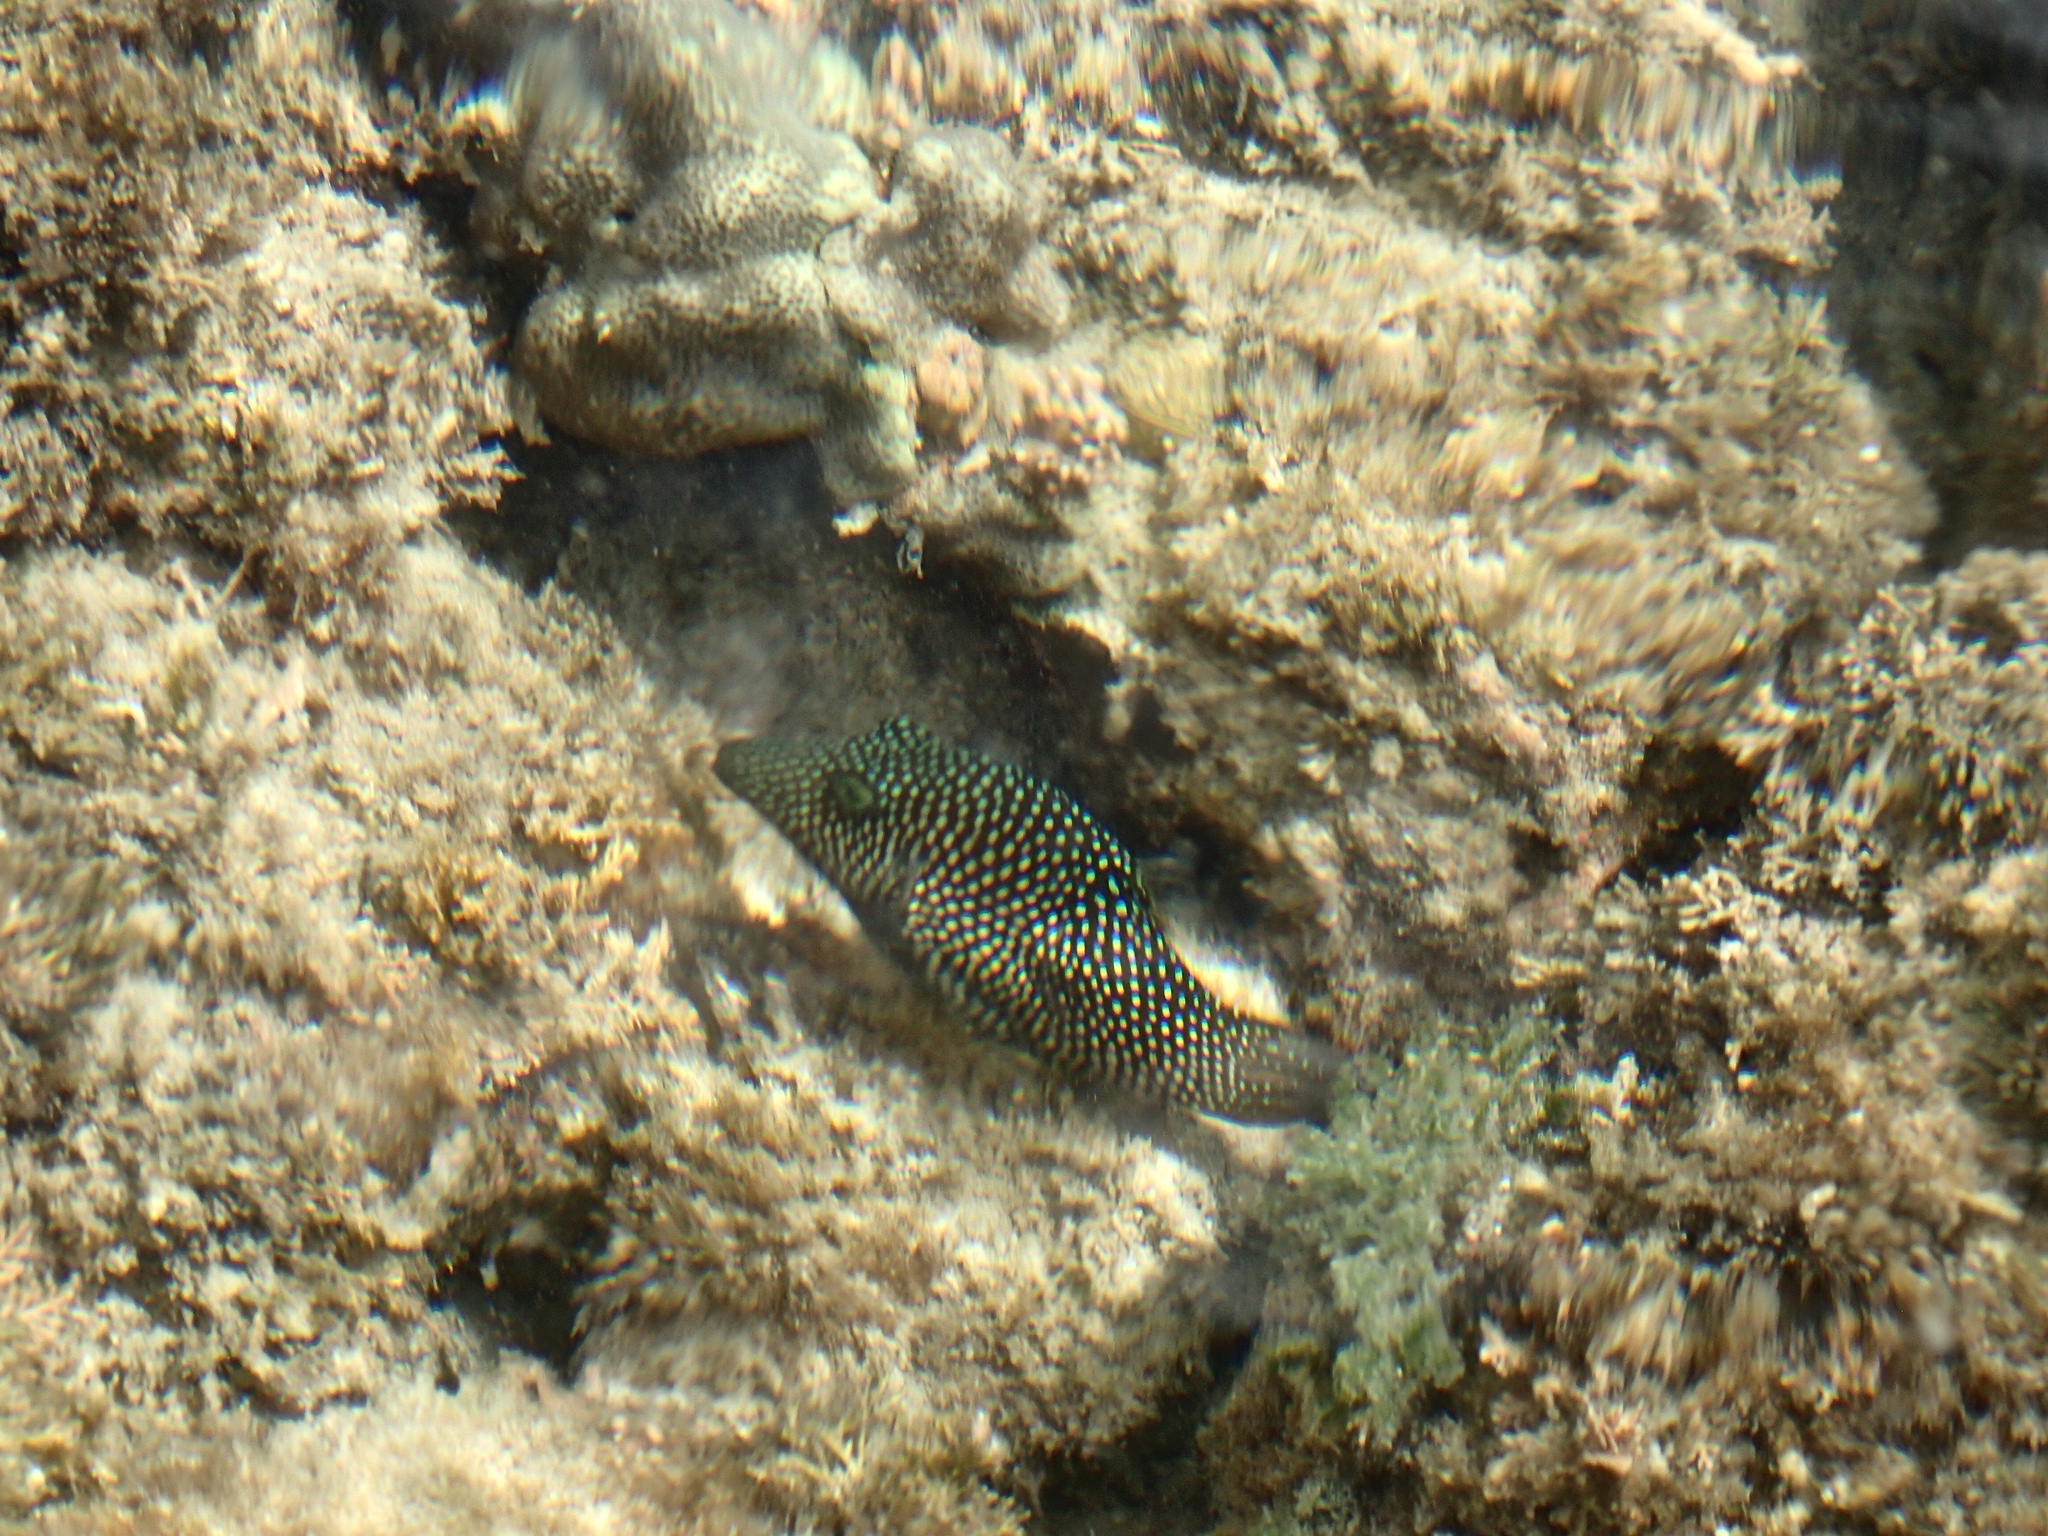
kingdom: Animalia
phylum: Chordata
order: Tetraodontiformes
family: Tetraodontidae
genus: Canthigaster
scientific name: Canthigaster punctatissima
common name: Spotted sharpnose puffer
